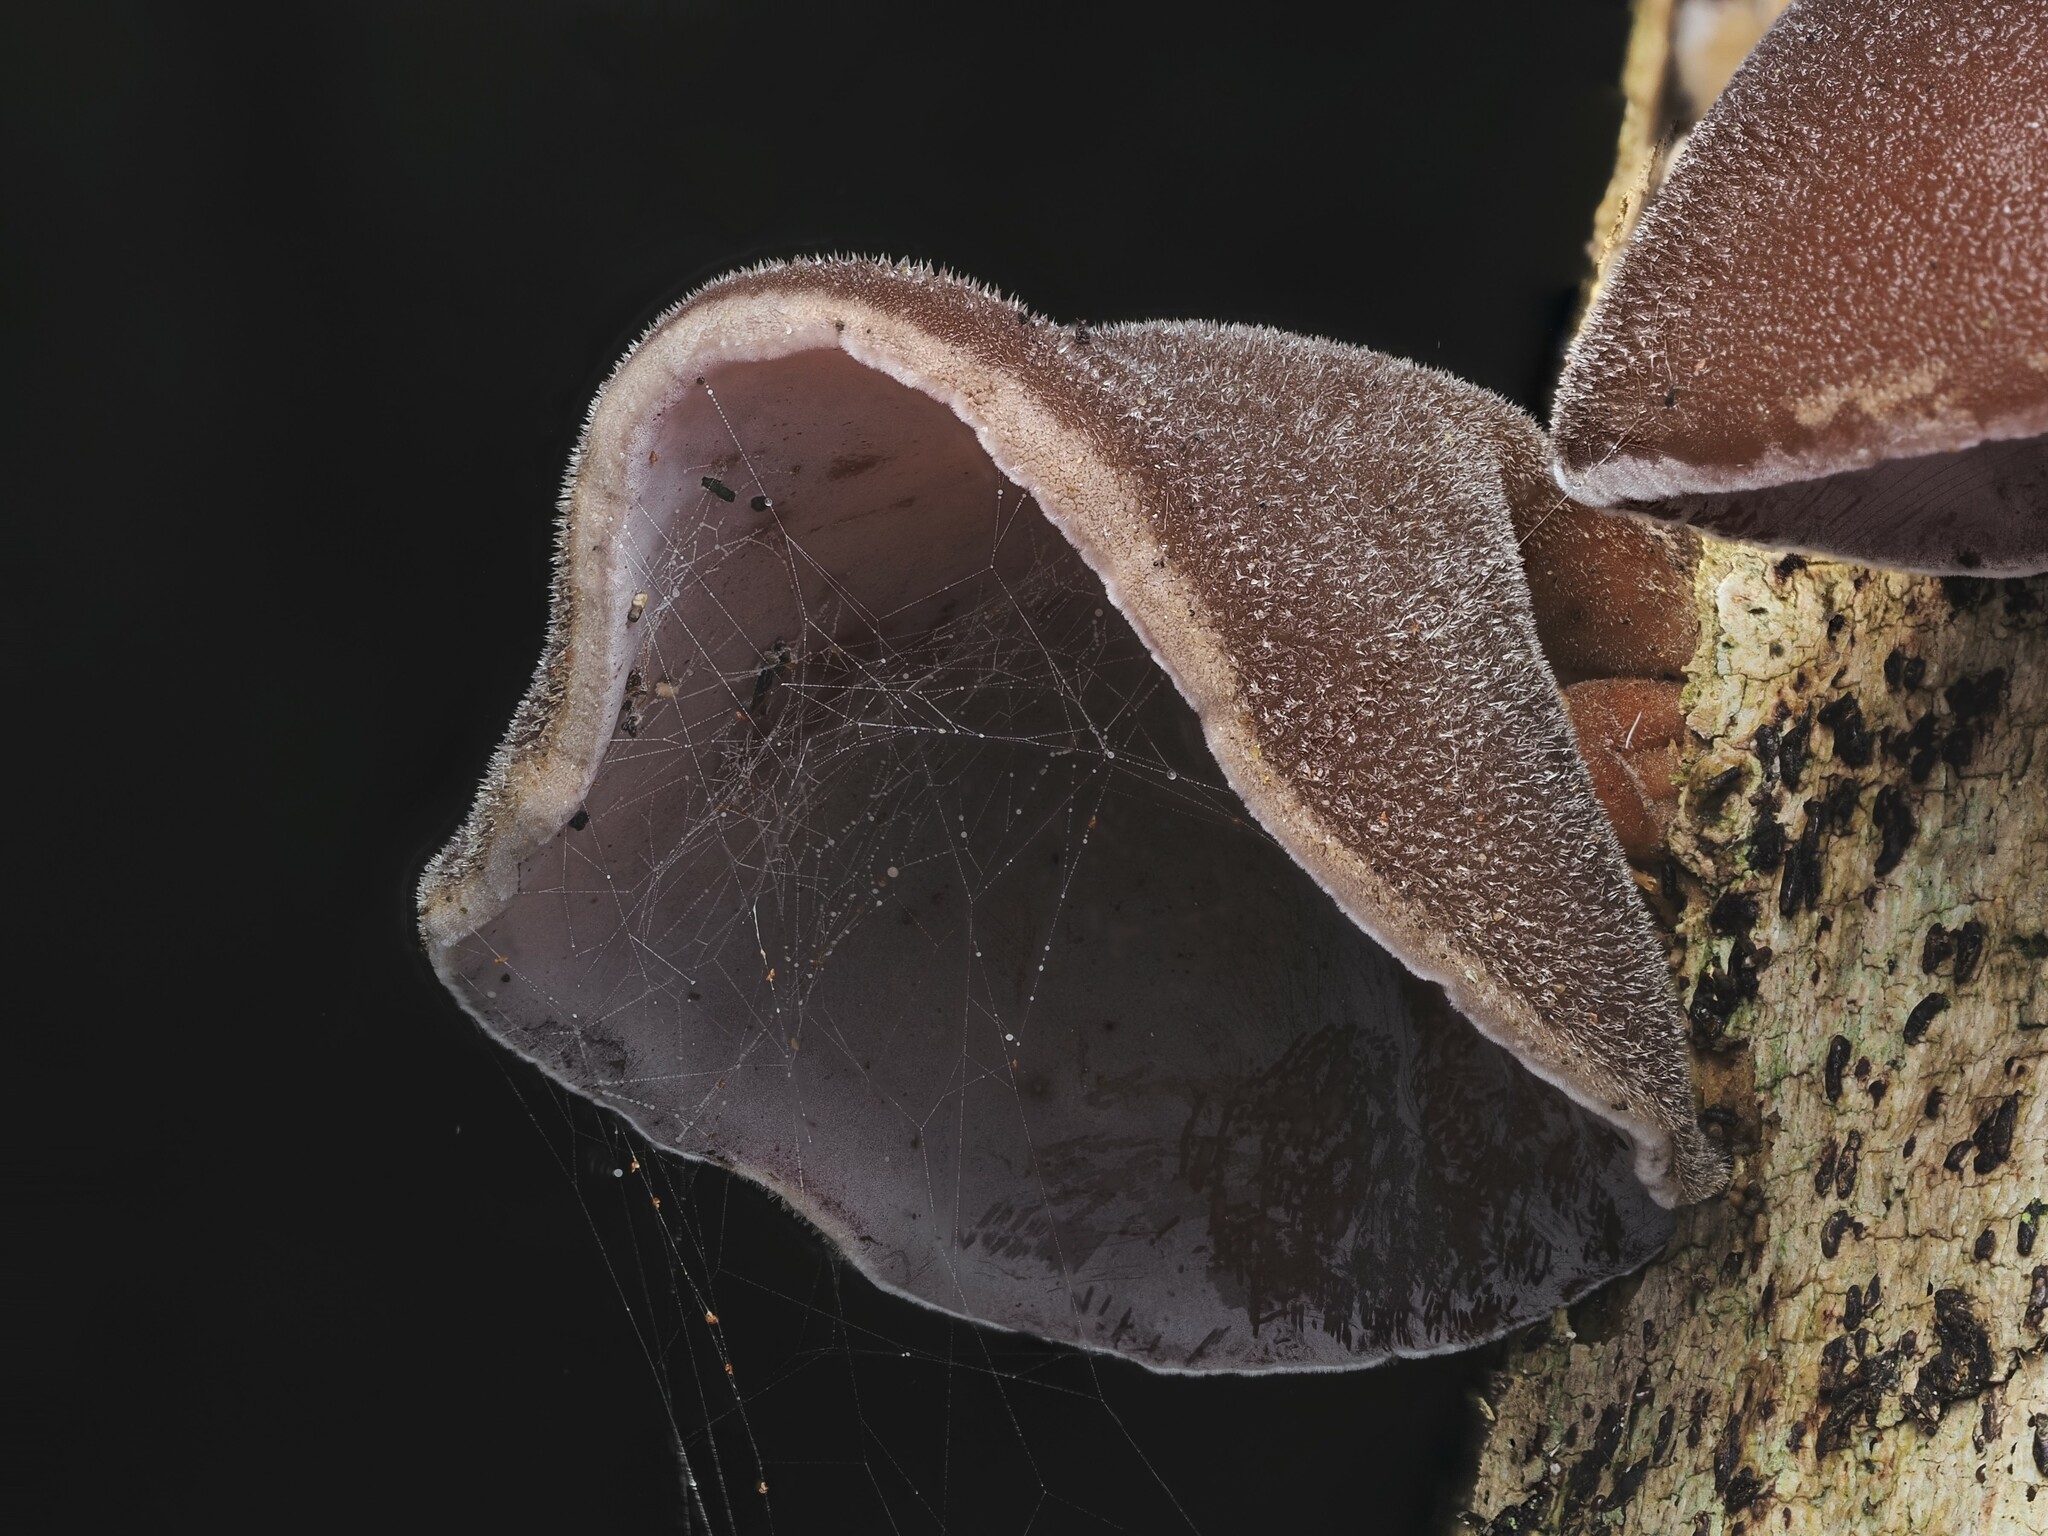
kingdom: Fungi
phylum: Basidiomycota
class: Agaricomycetes
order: Auriculariales
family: Auriculariaceae
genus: Auricularia
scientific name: Auricularia cornea
